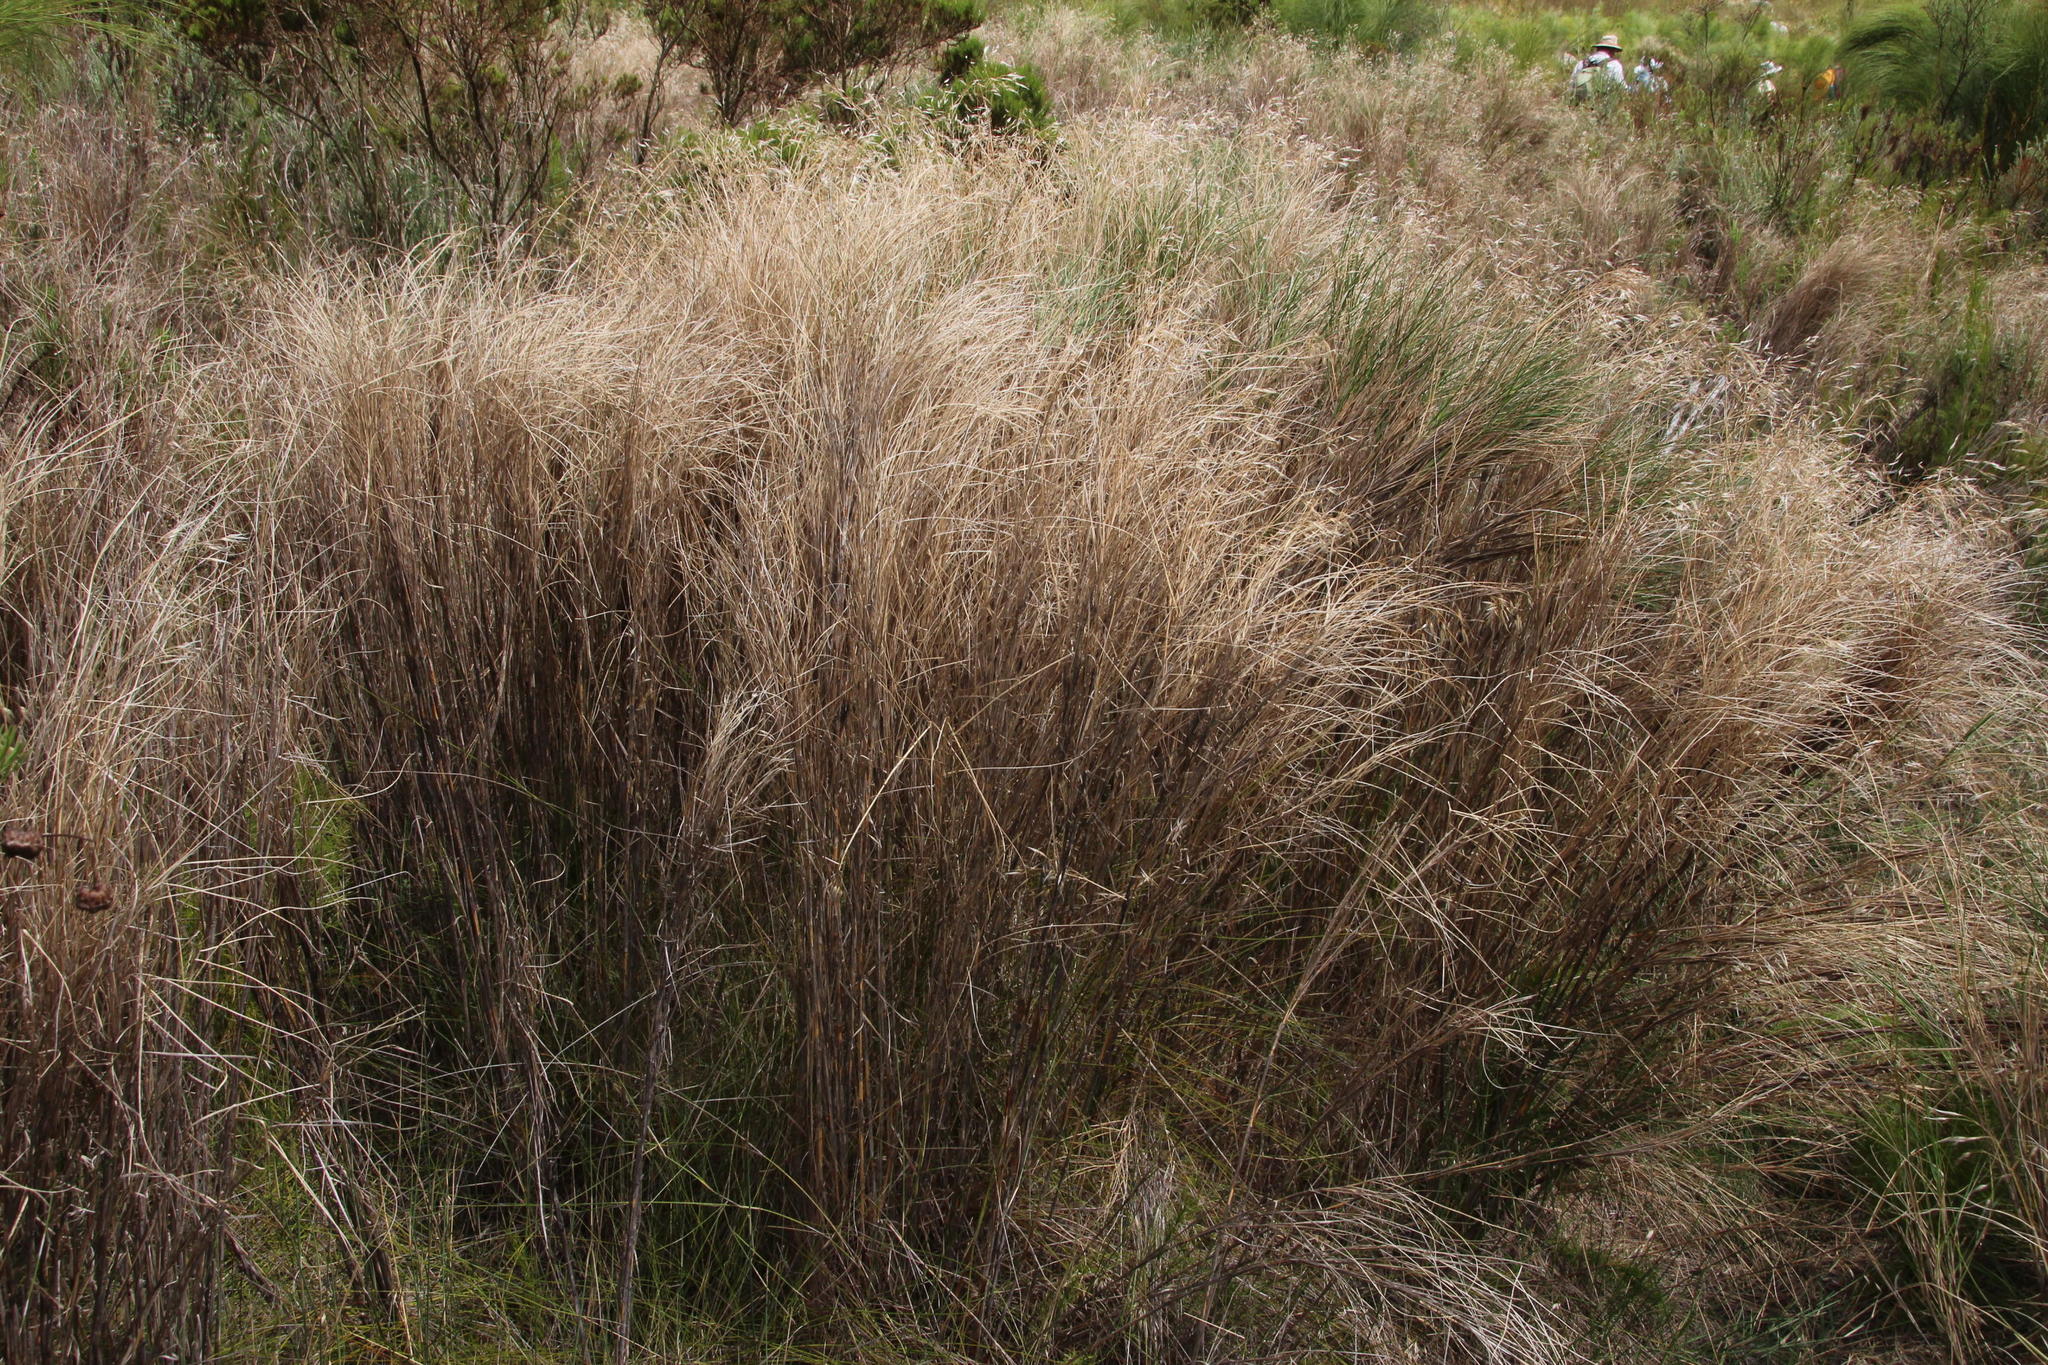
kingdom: Plantae
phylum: Tracheophyta
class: Liliopsida
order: Poales
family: Poaceae
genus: Pentameris
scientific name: Pentameris thuarii
